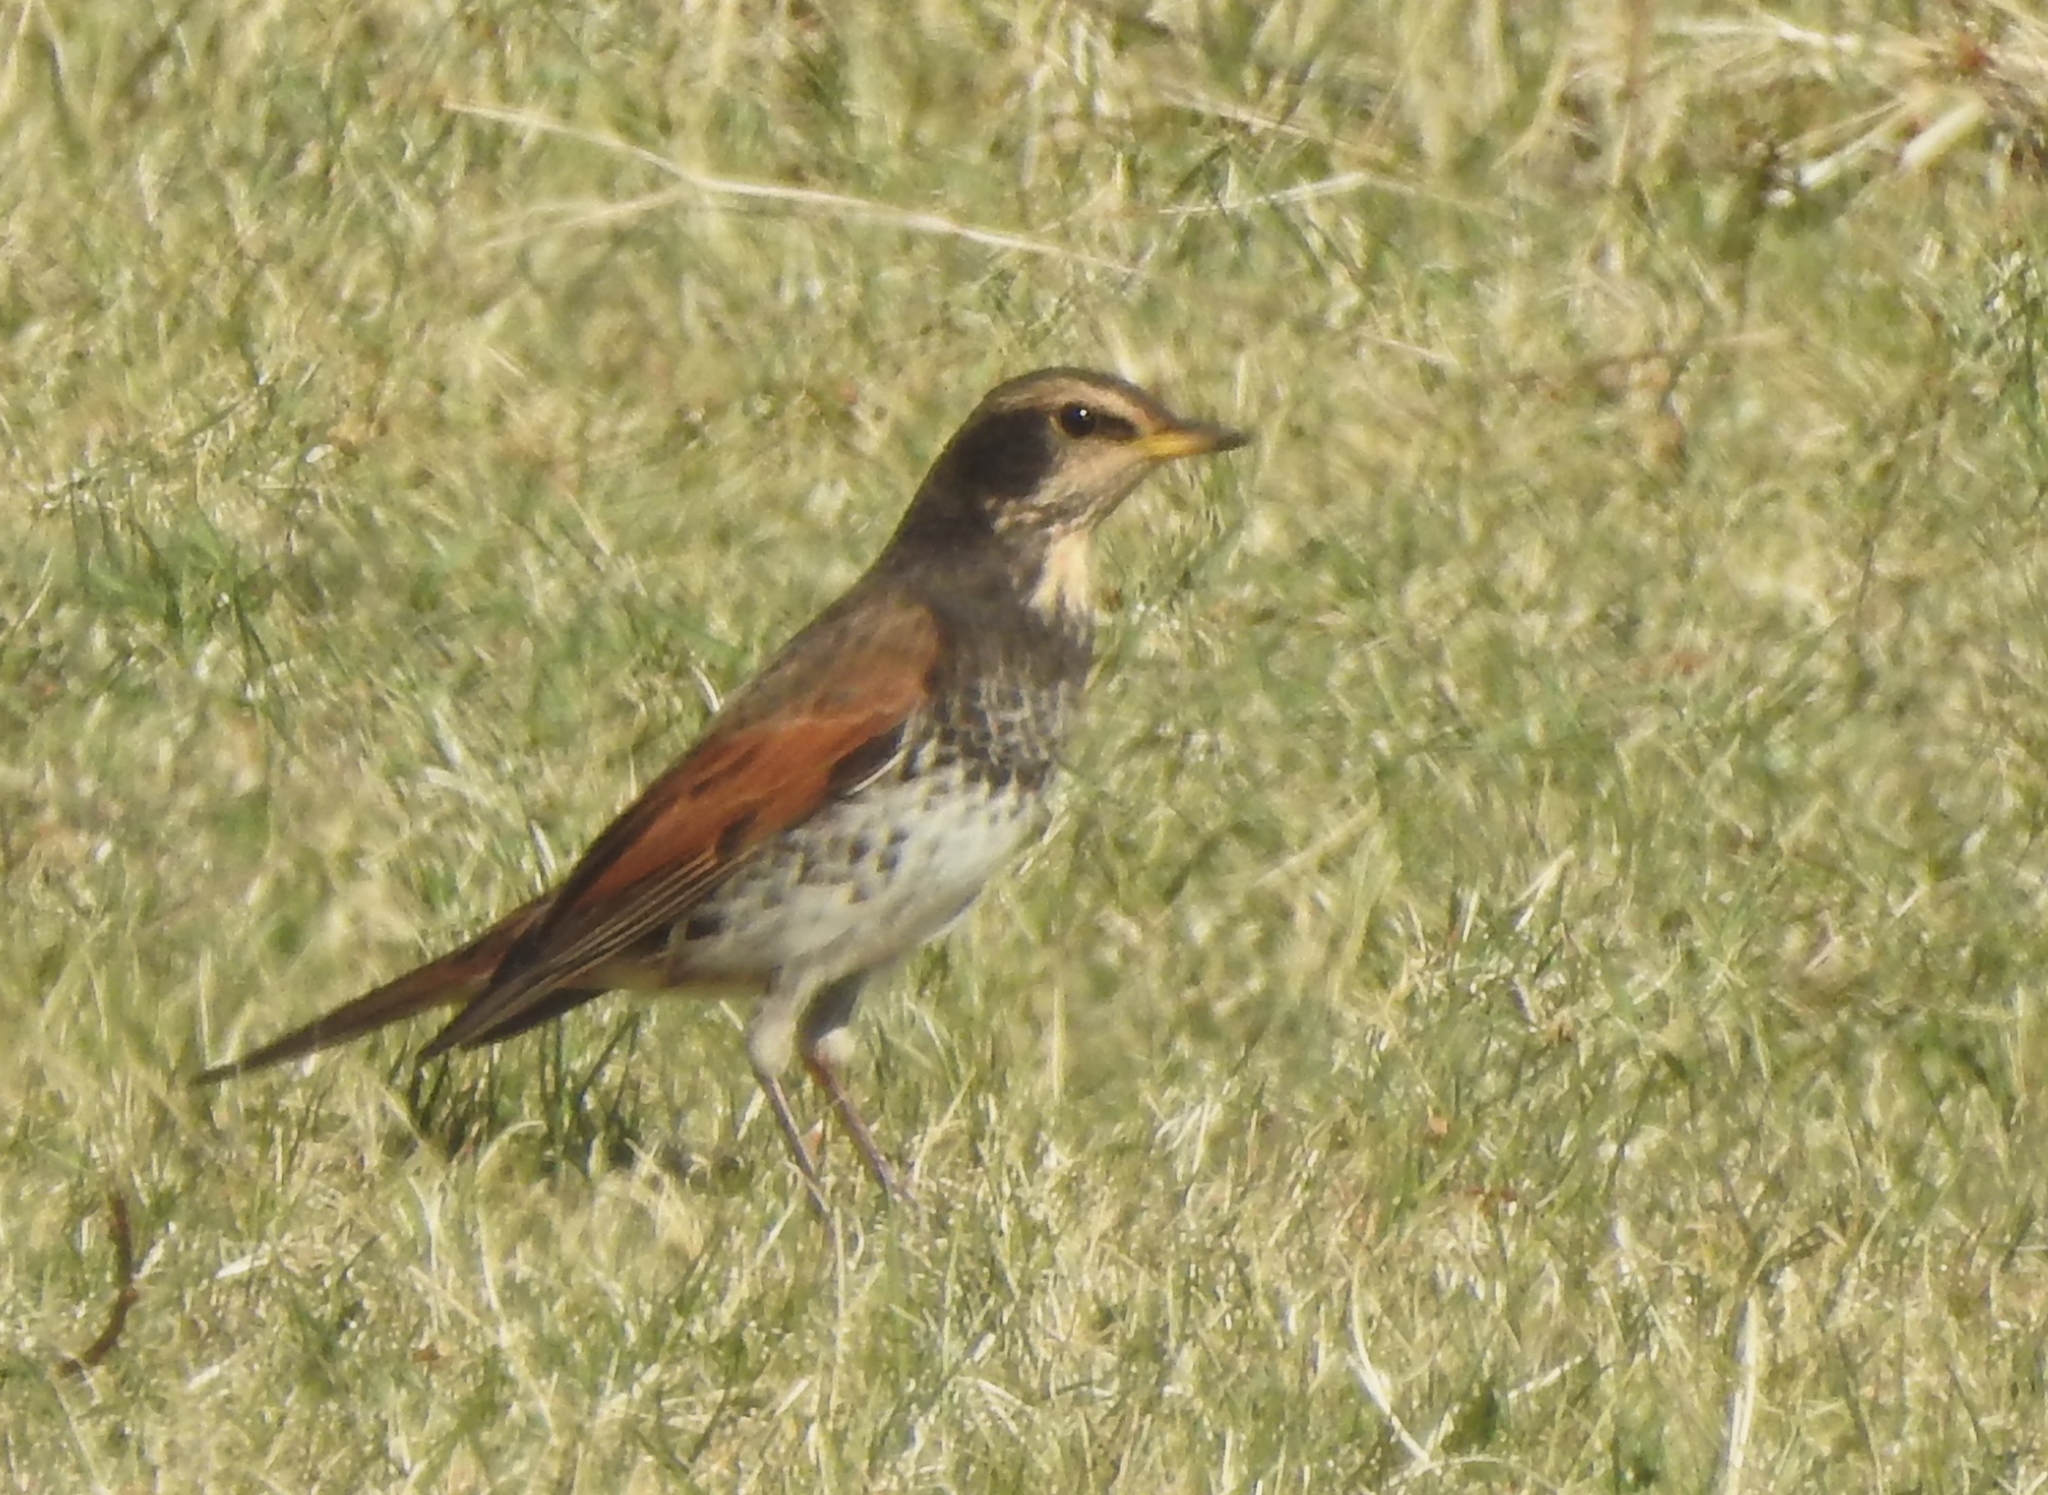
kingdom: Animalia
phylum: Chordata
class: Aves
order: Passeriformes
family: Turdidae
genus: Turdus
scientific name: Turdus eunomus
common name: Dusky thrush
